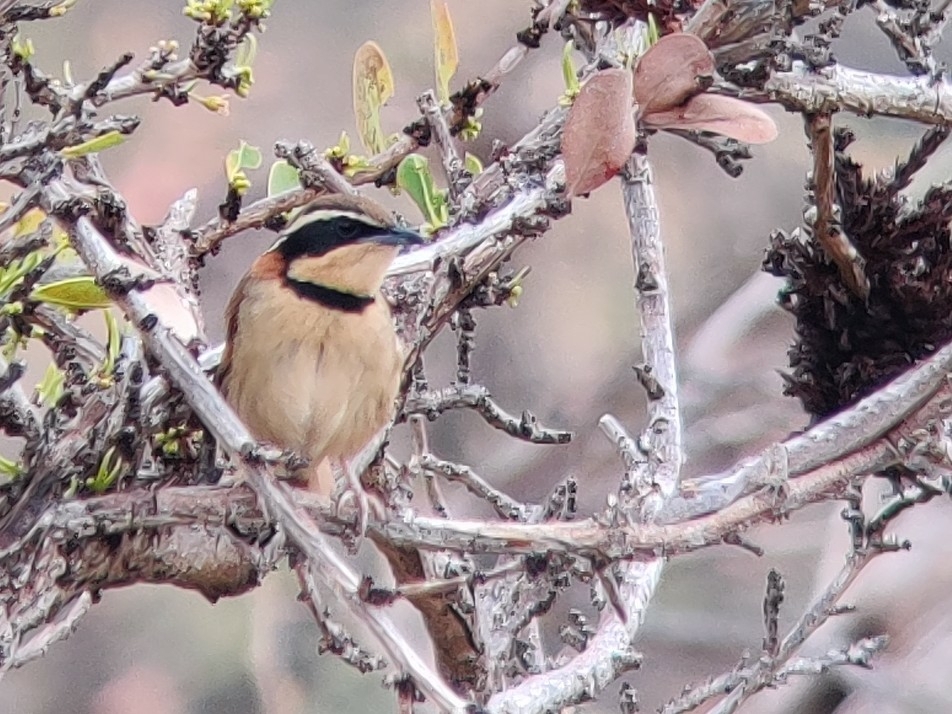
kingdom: Animalia
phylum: Chordata
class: Aves
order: Passeriformes
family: Melanopareiidae
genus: Melanopareia
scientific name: Melanopareia torquata
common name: Collared crescentchest
